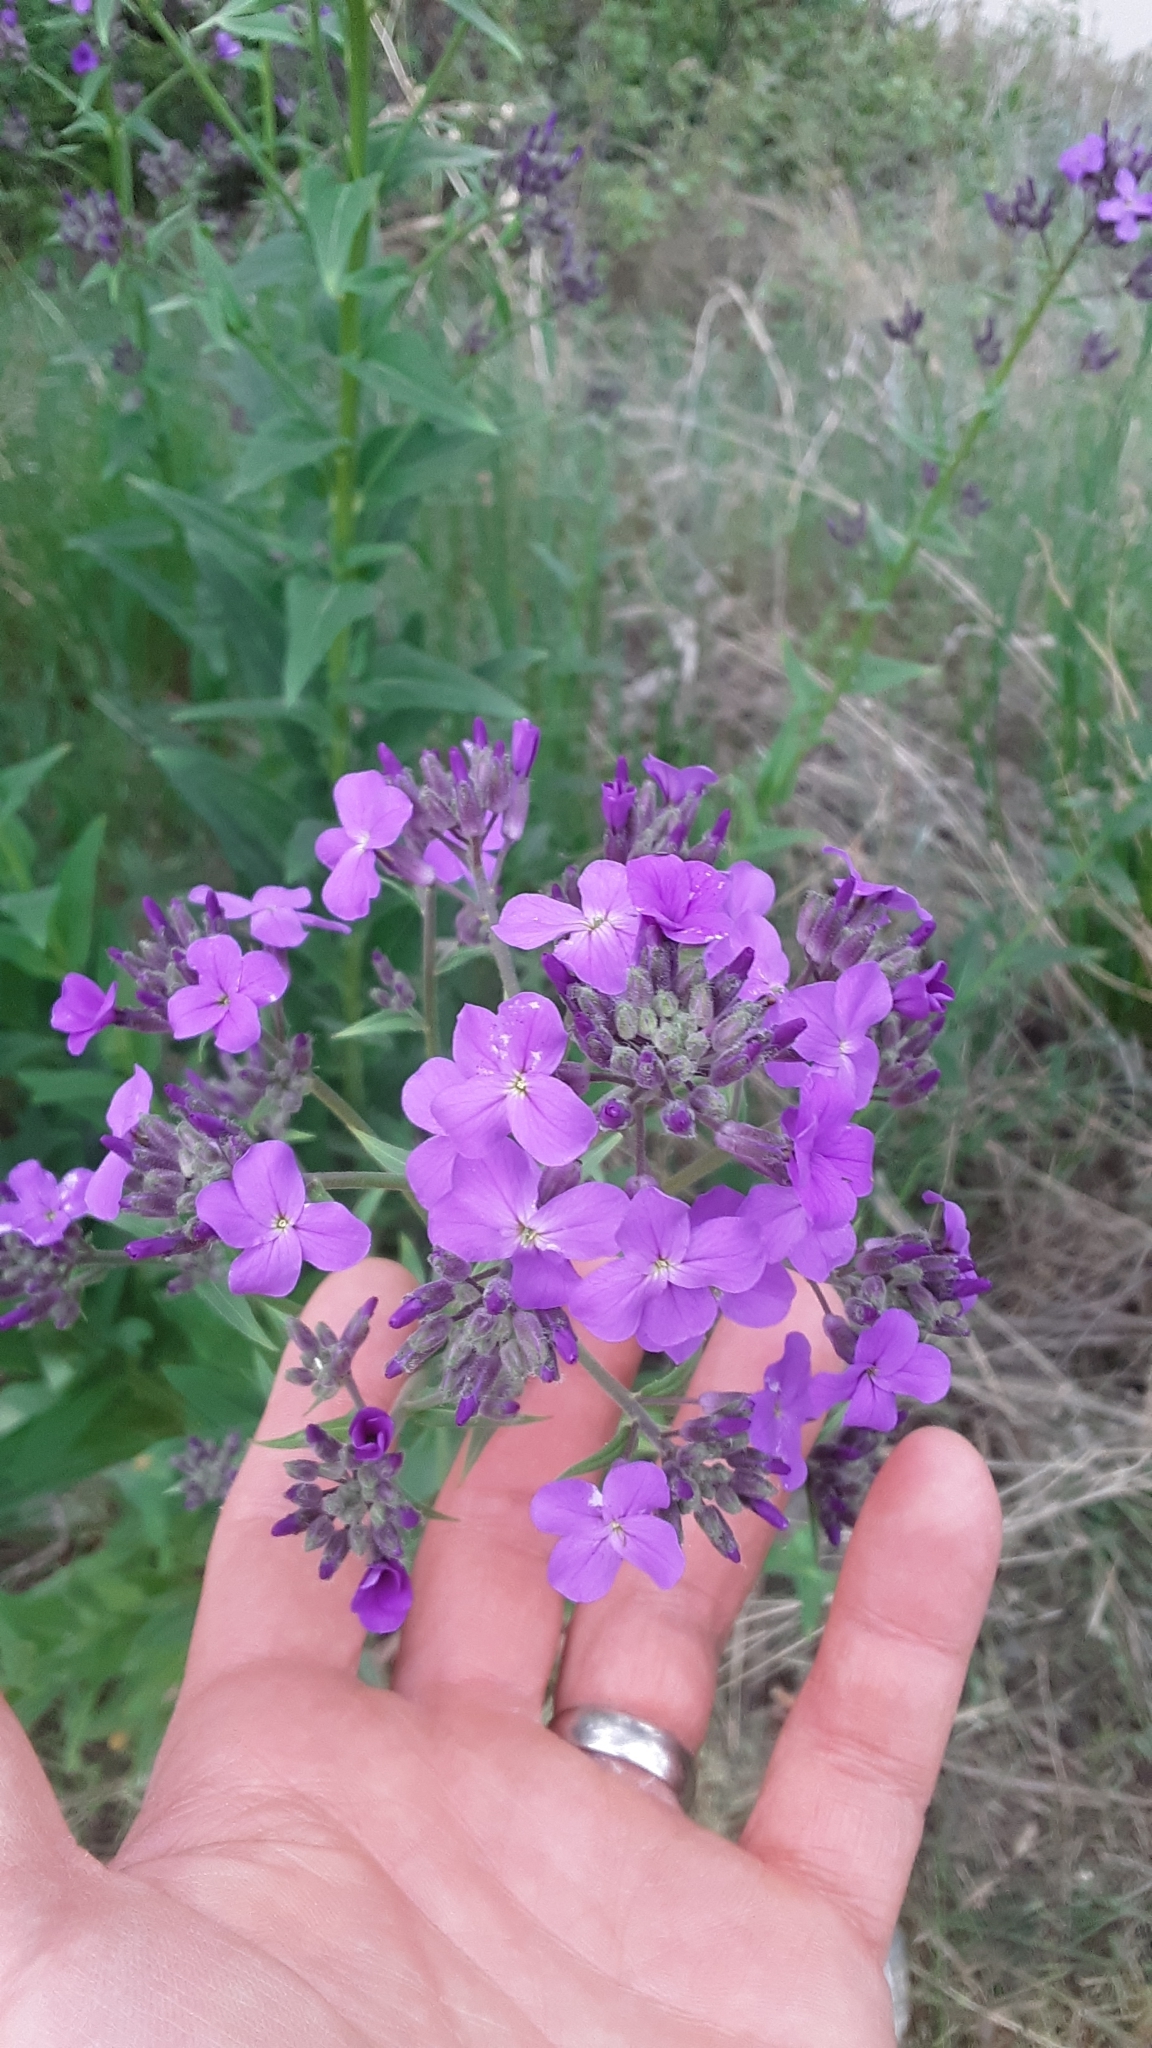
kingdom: Plantae
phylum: Tracheophyta
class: Magnoliopsida
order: Brassicales
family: Brassicaceae
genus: Hesperis
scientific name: Hesperis matronalis
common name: Dame's-violet
